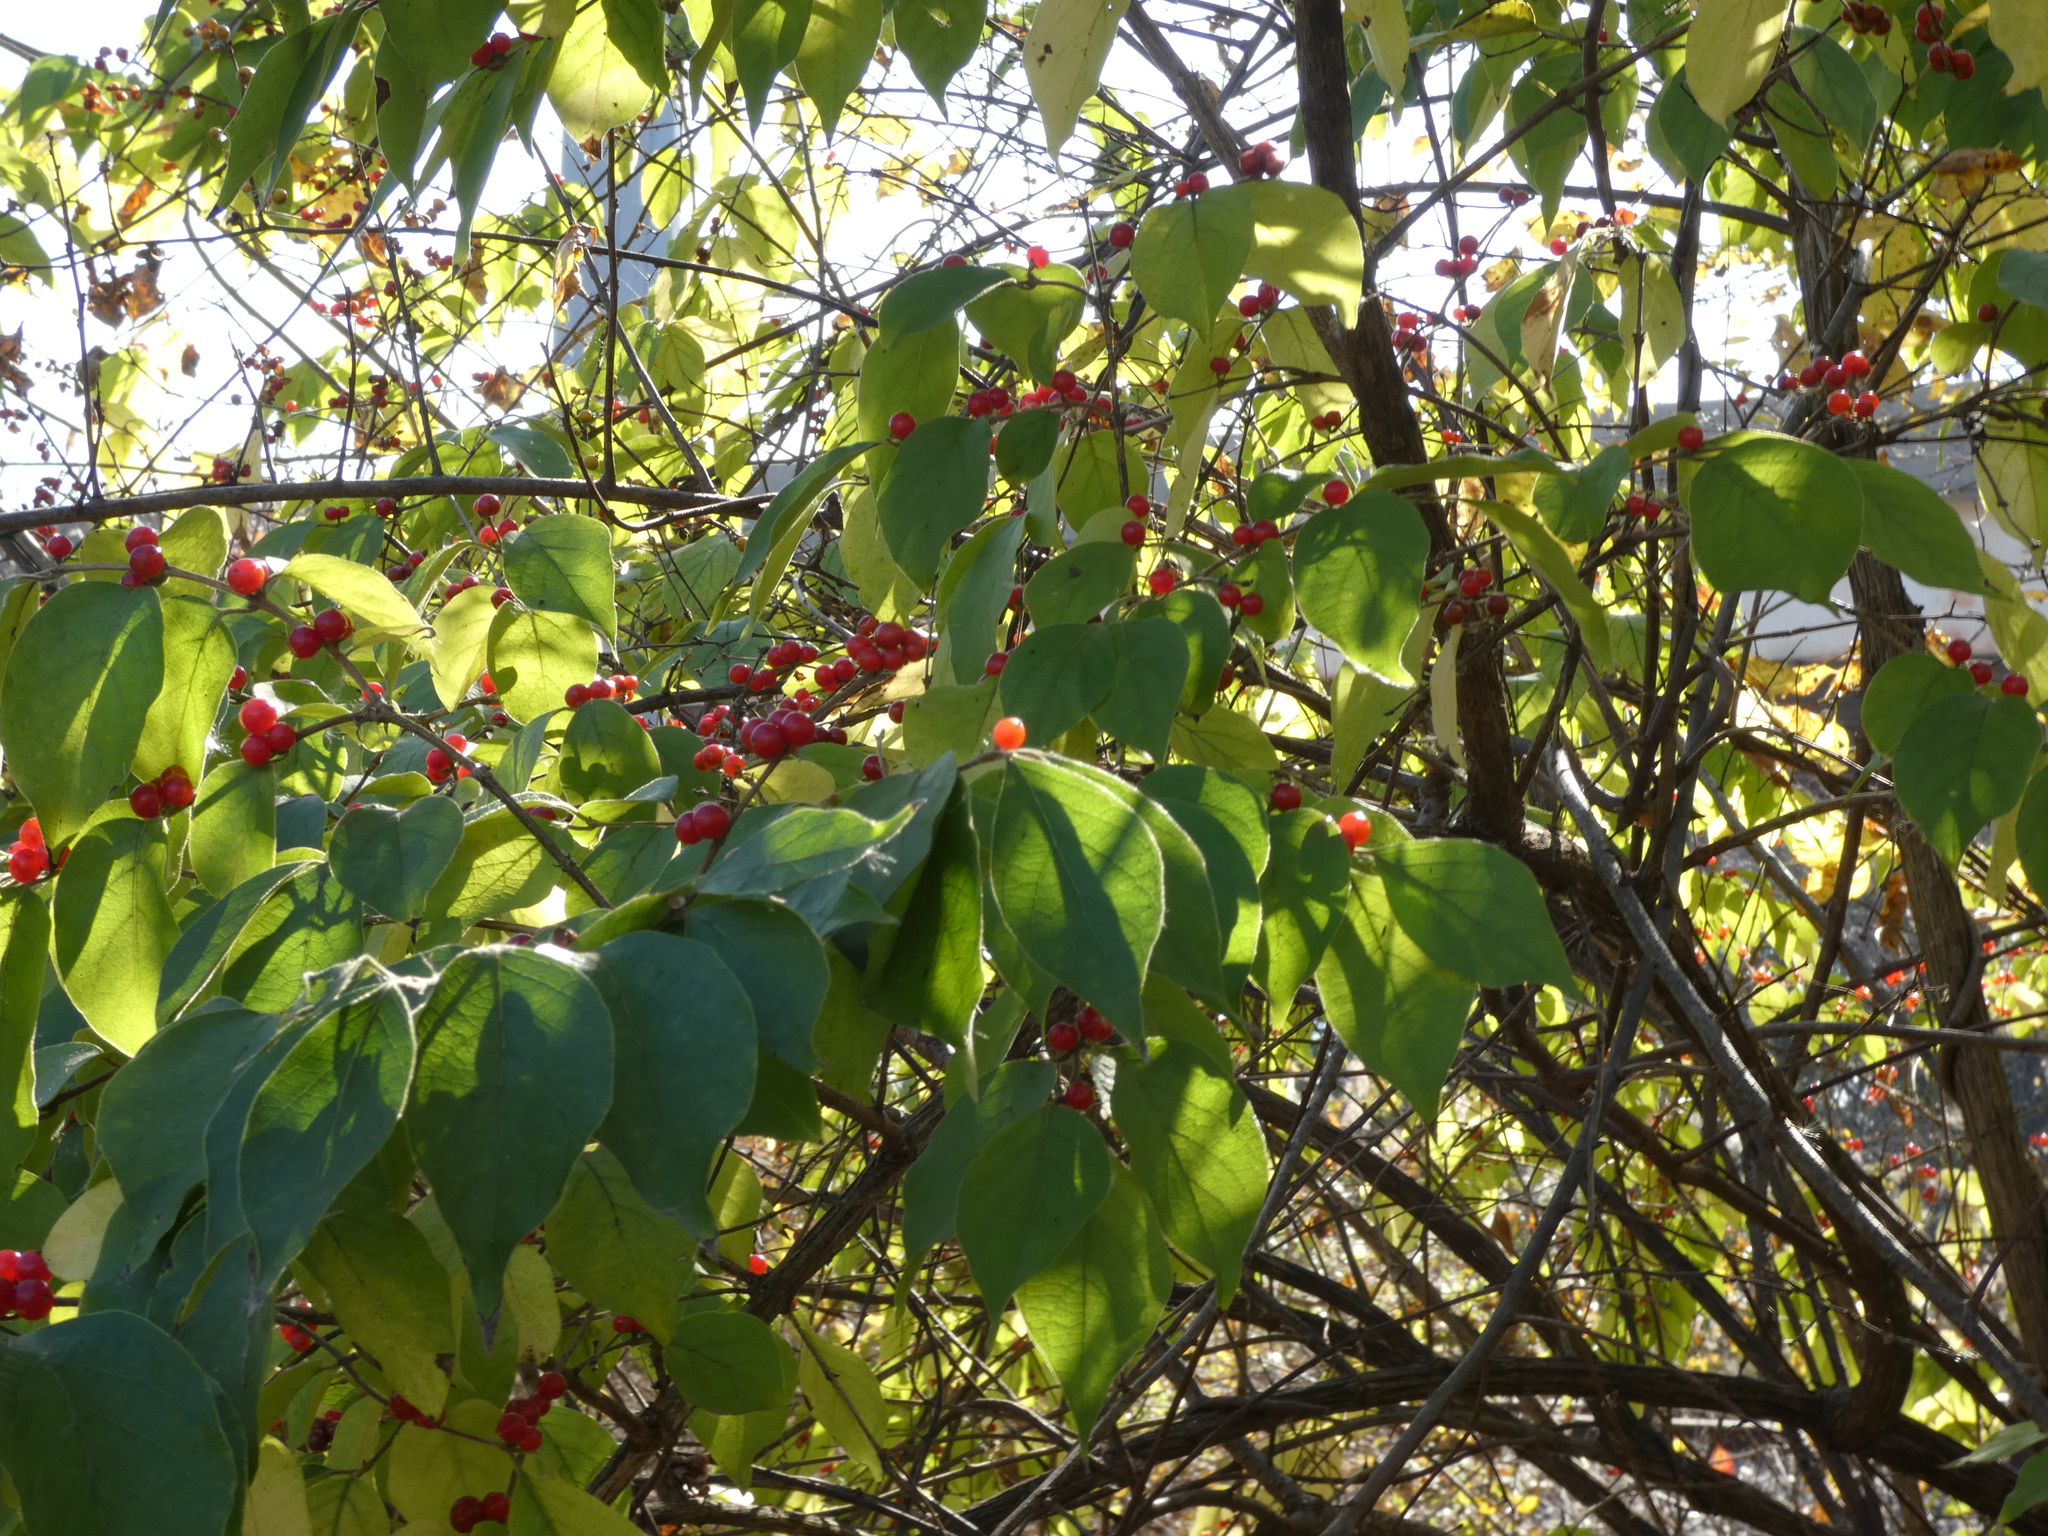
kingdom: Plantae
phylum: Tracheophyta
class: Magnoliopsida
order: Dipsacales
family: Caprifoliaceae
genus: Lonicera
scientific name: Lonicera maackii
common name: Amur honeysuckle
